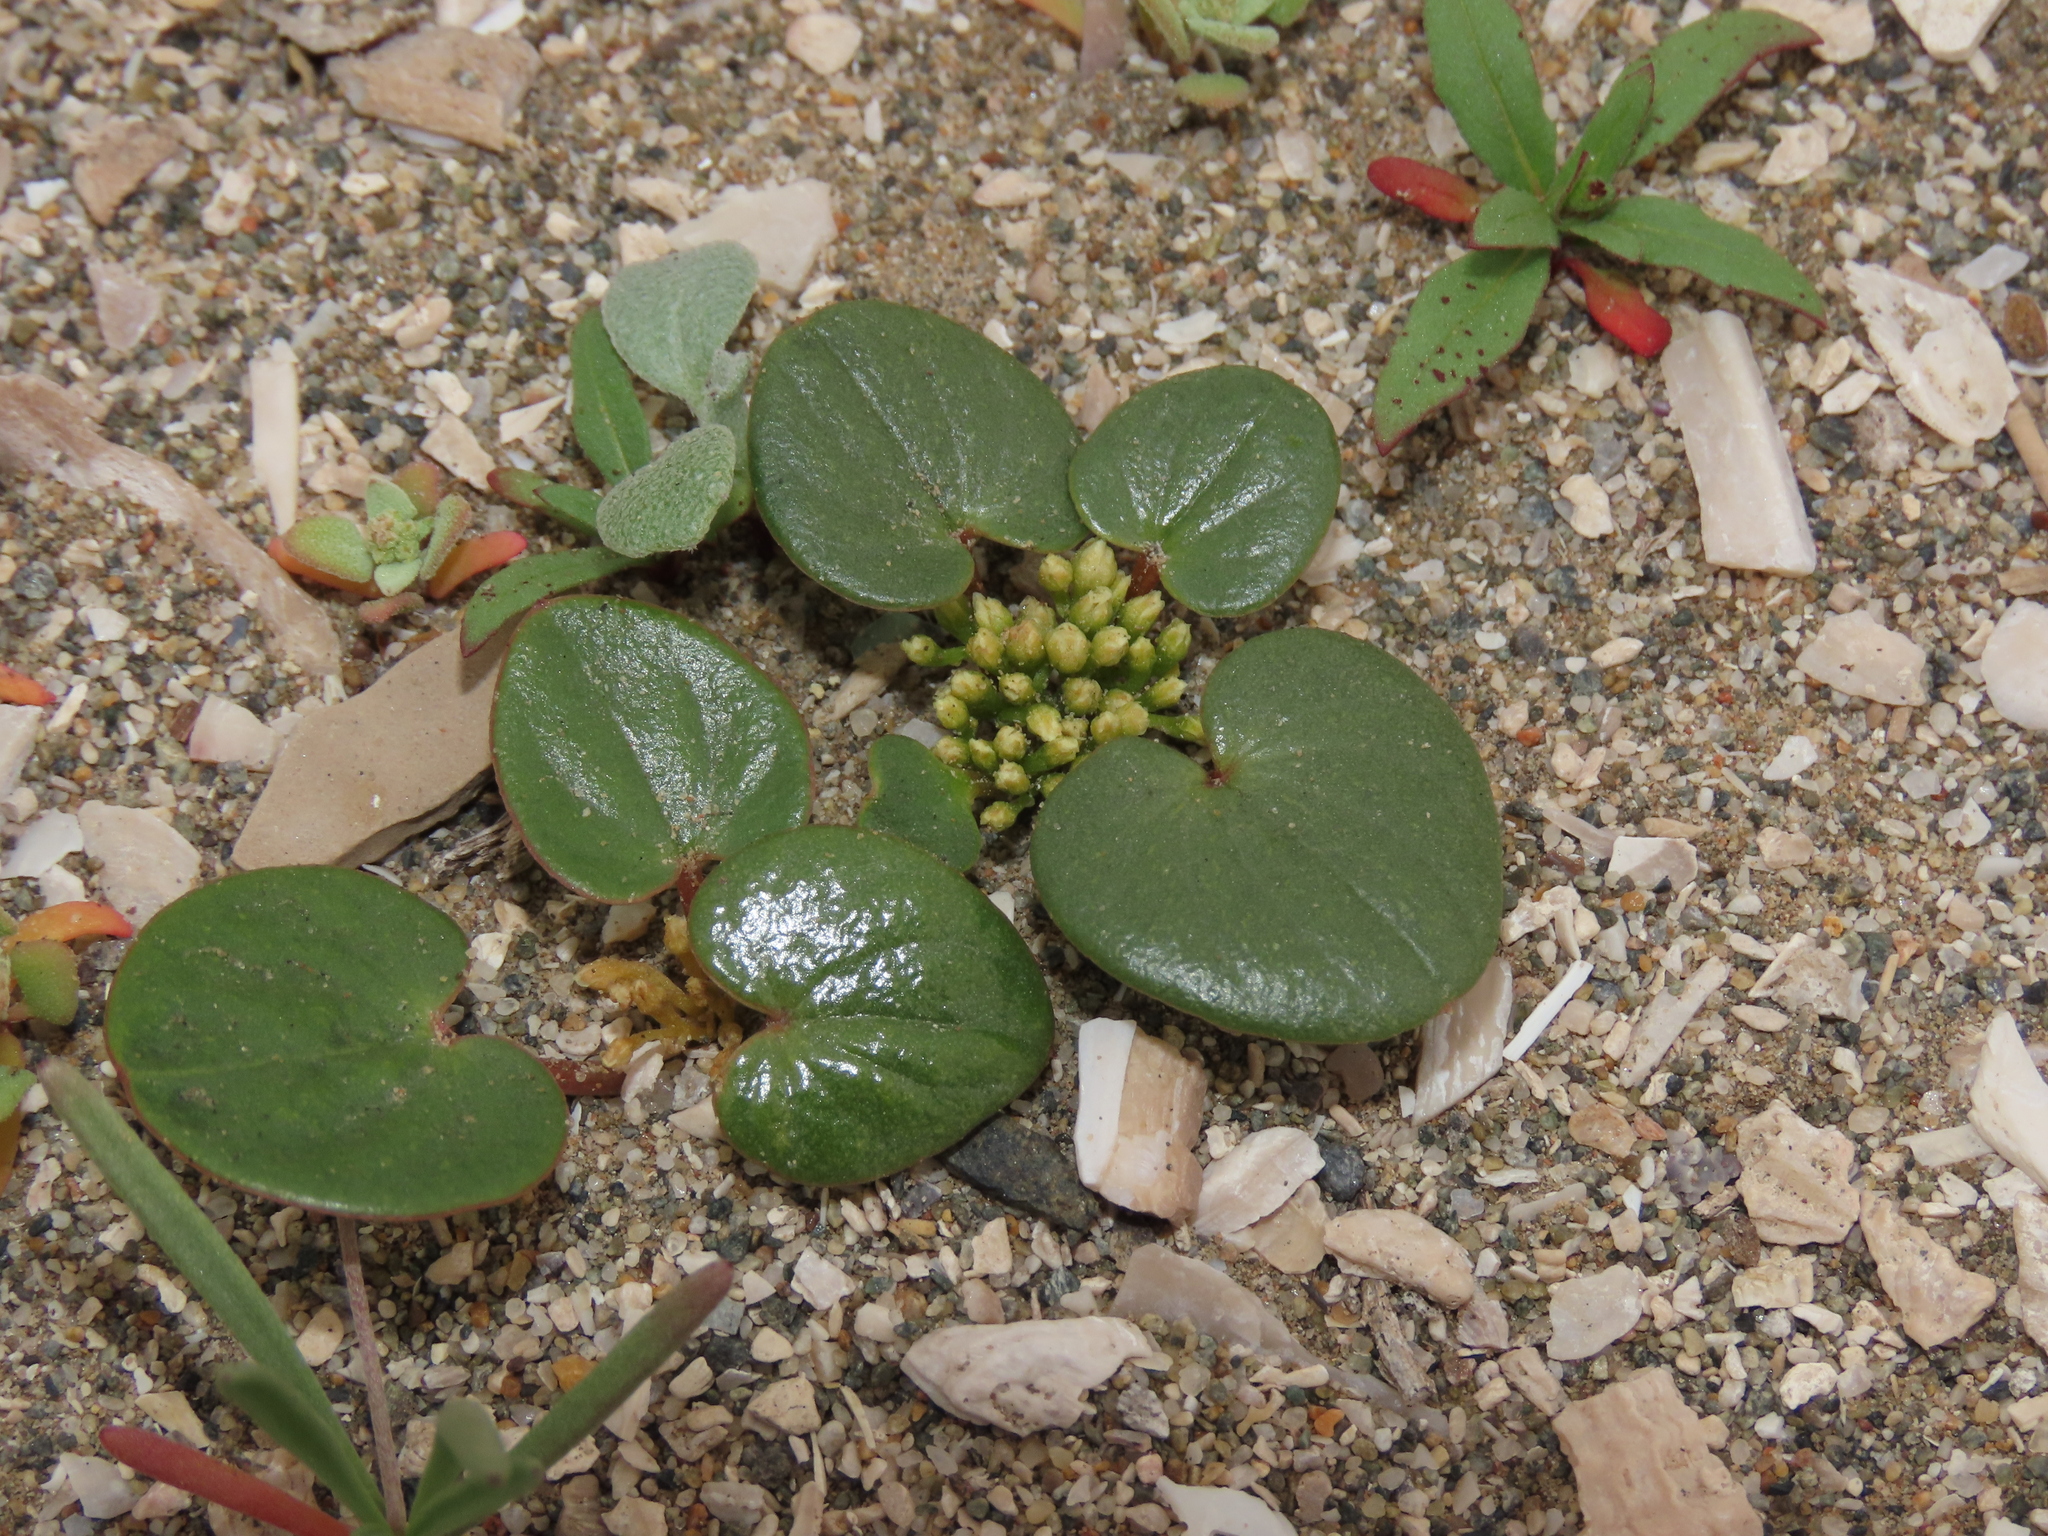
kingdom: Plantae
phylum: Tracheophyta
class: Liliopsida
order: Dioscoreales
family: Dioscoreaceae
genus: Dioscorea
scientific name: Dioscorea fastigiata
